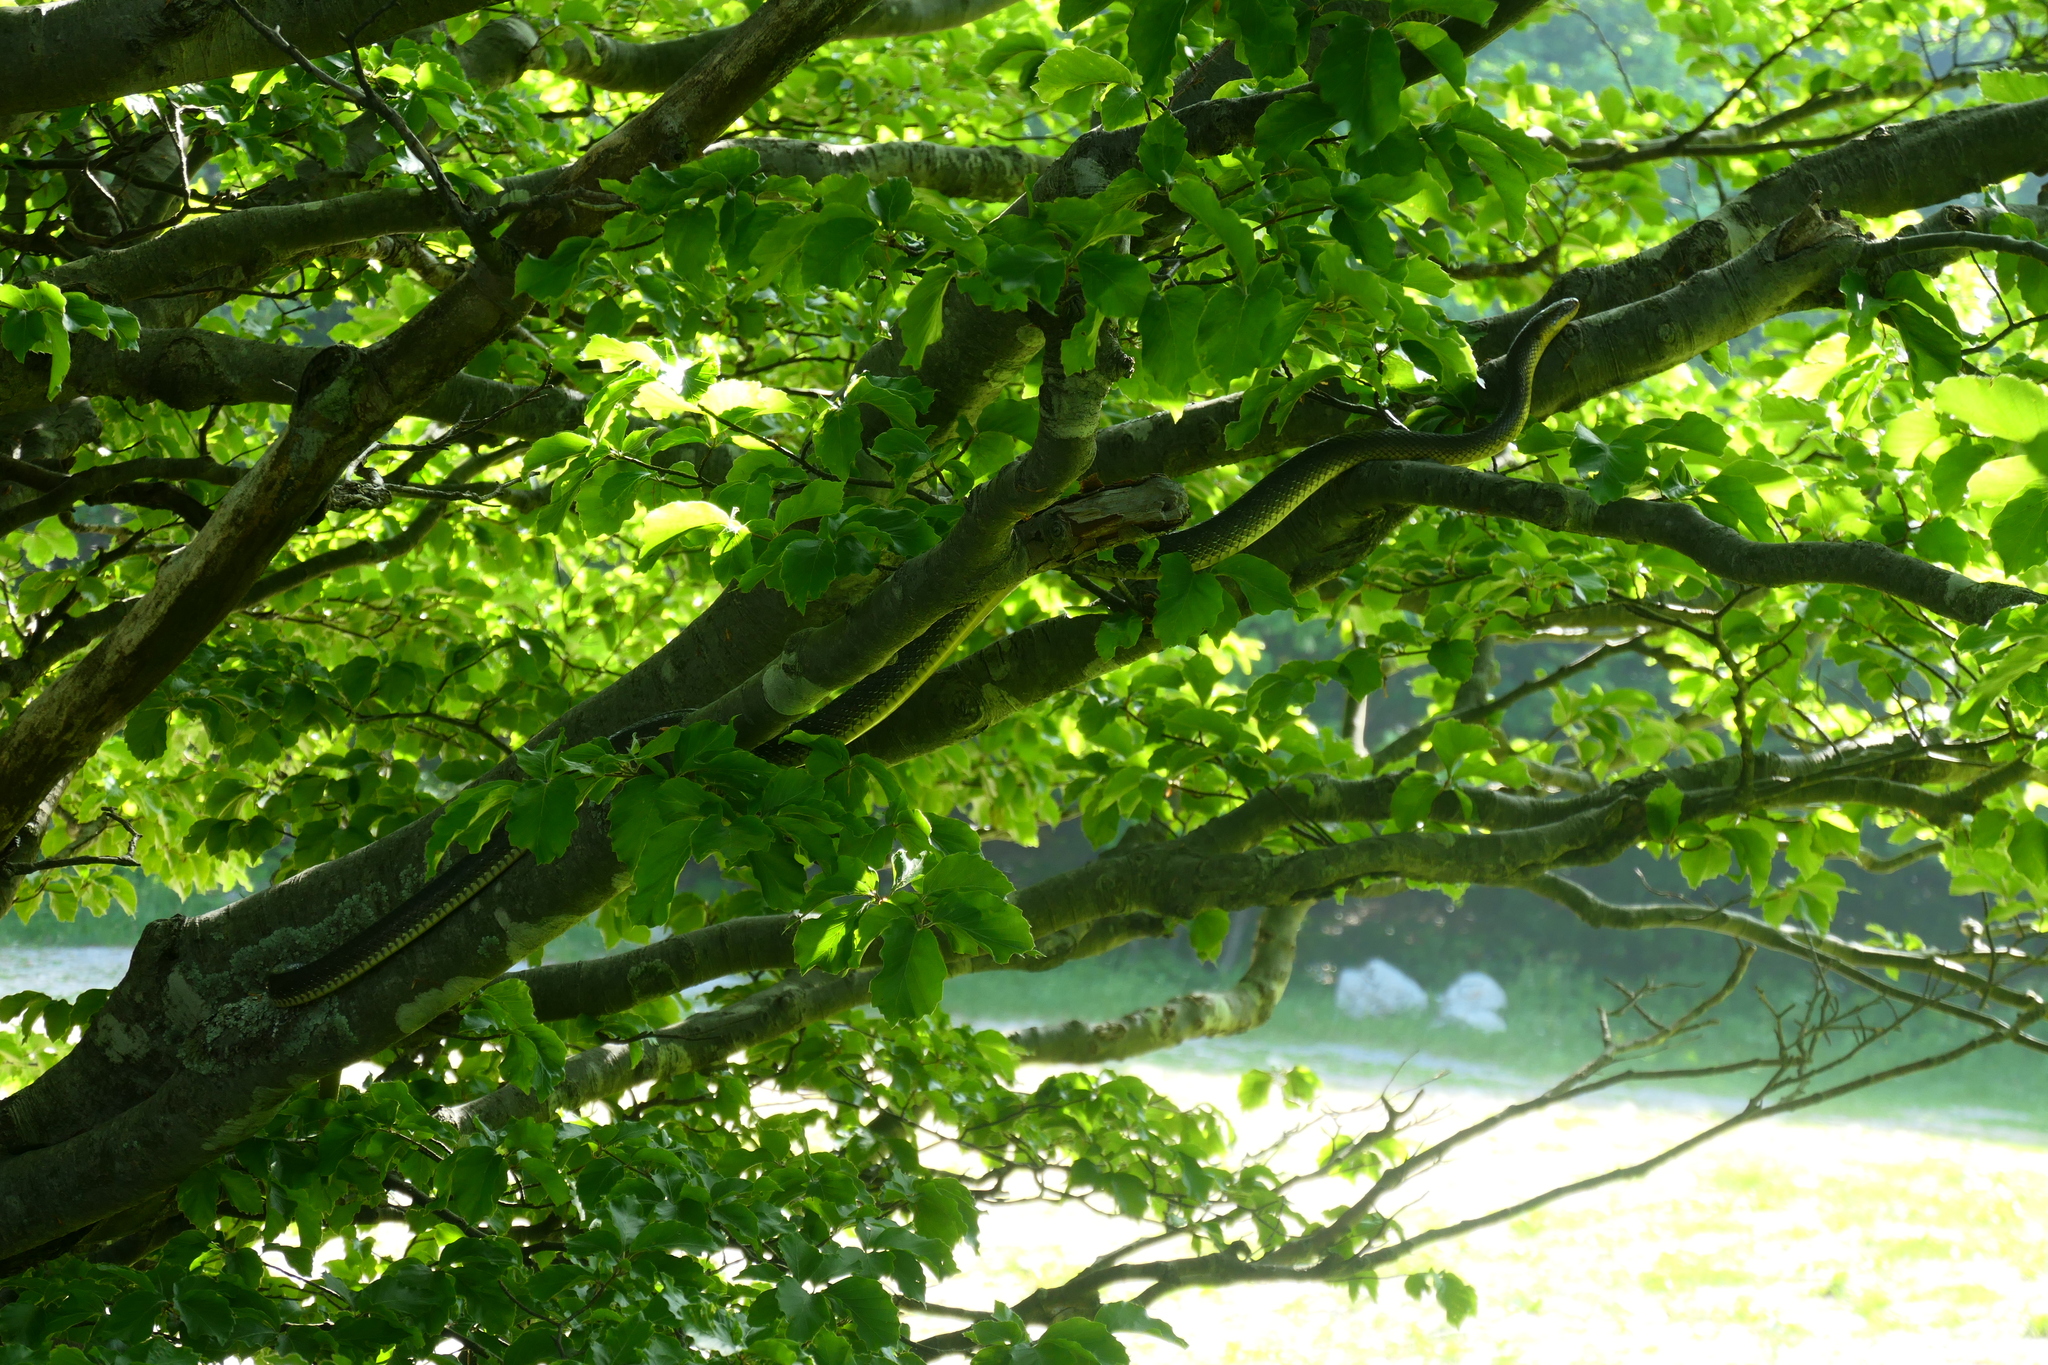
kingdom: Animalia
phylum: Chordata
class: Squamata
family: Colubridae
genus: Zamenis
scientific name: Zamenis longissimus
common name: Aesculapean snake
